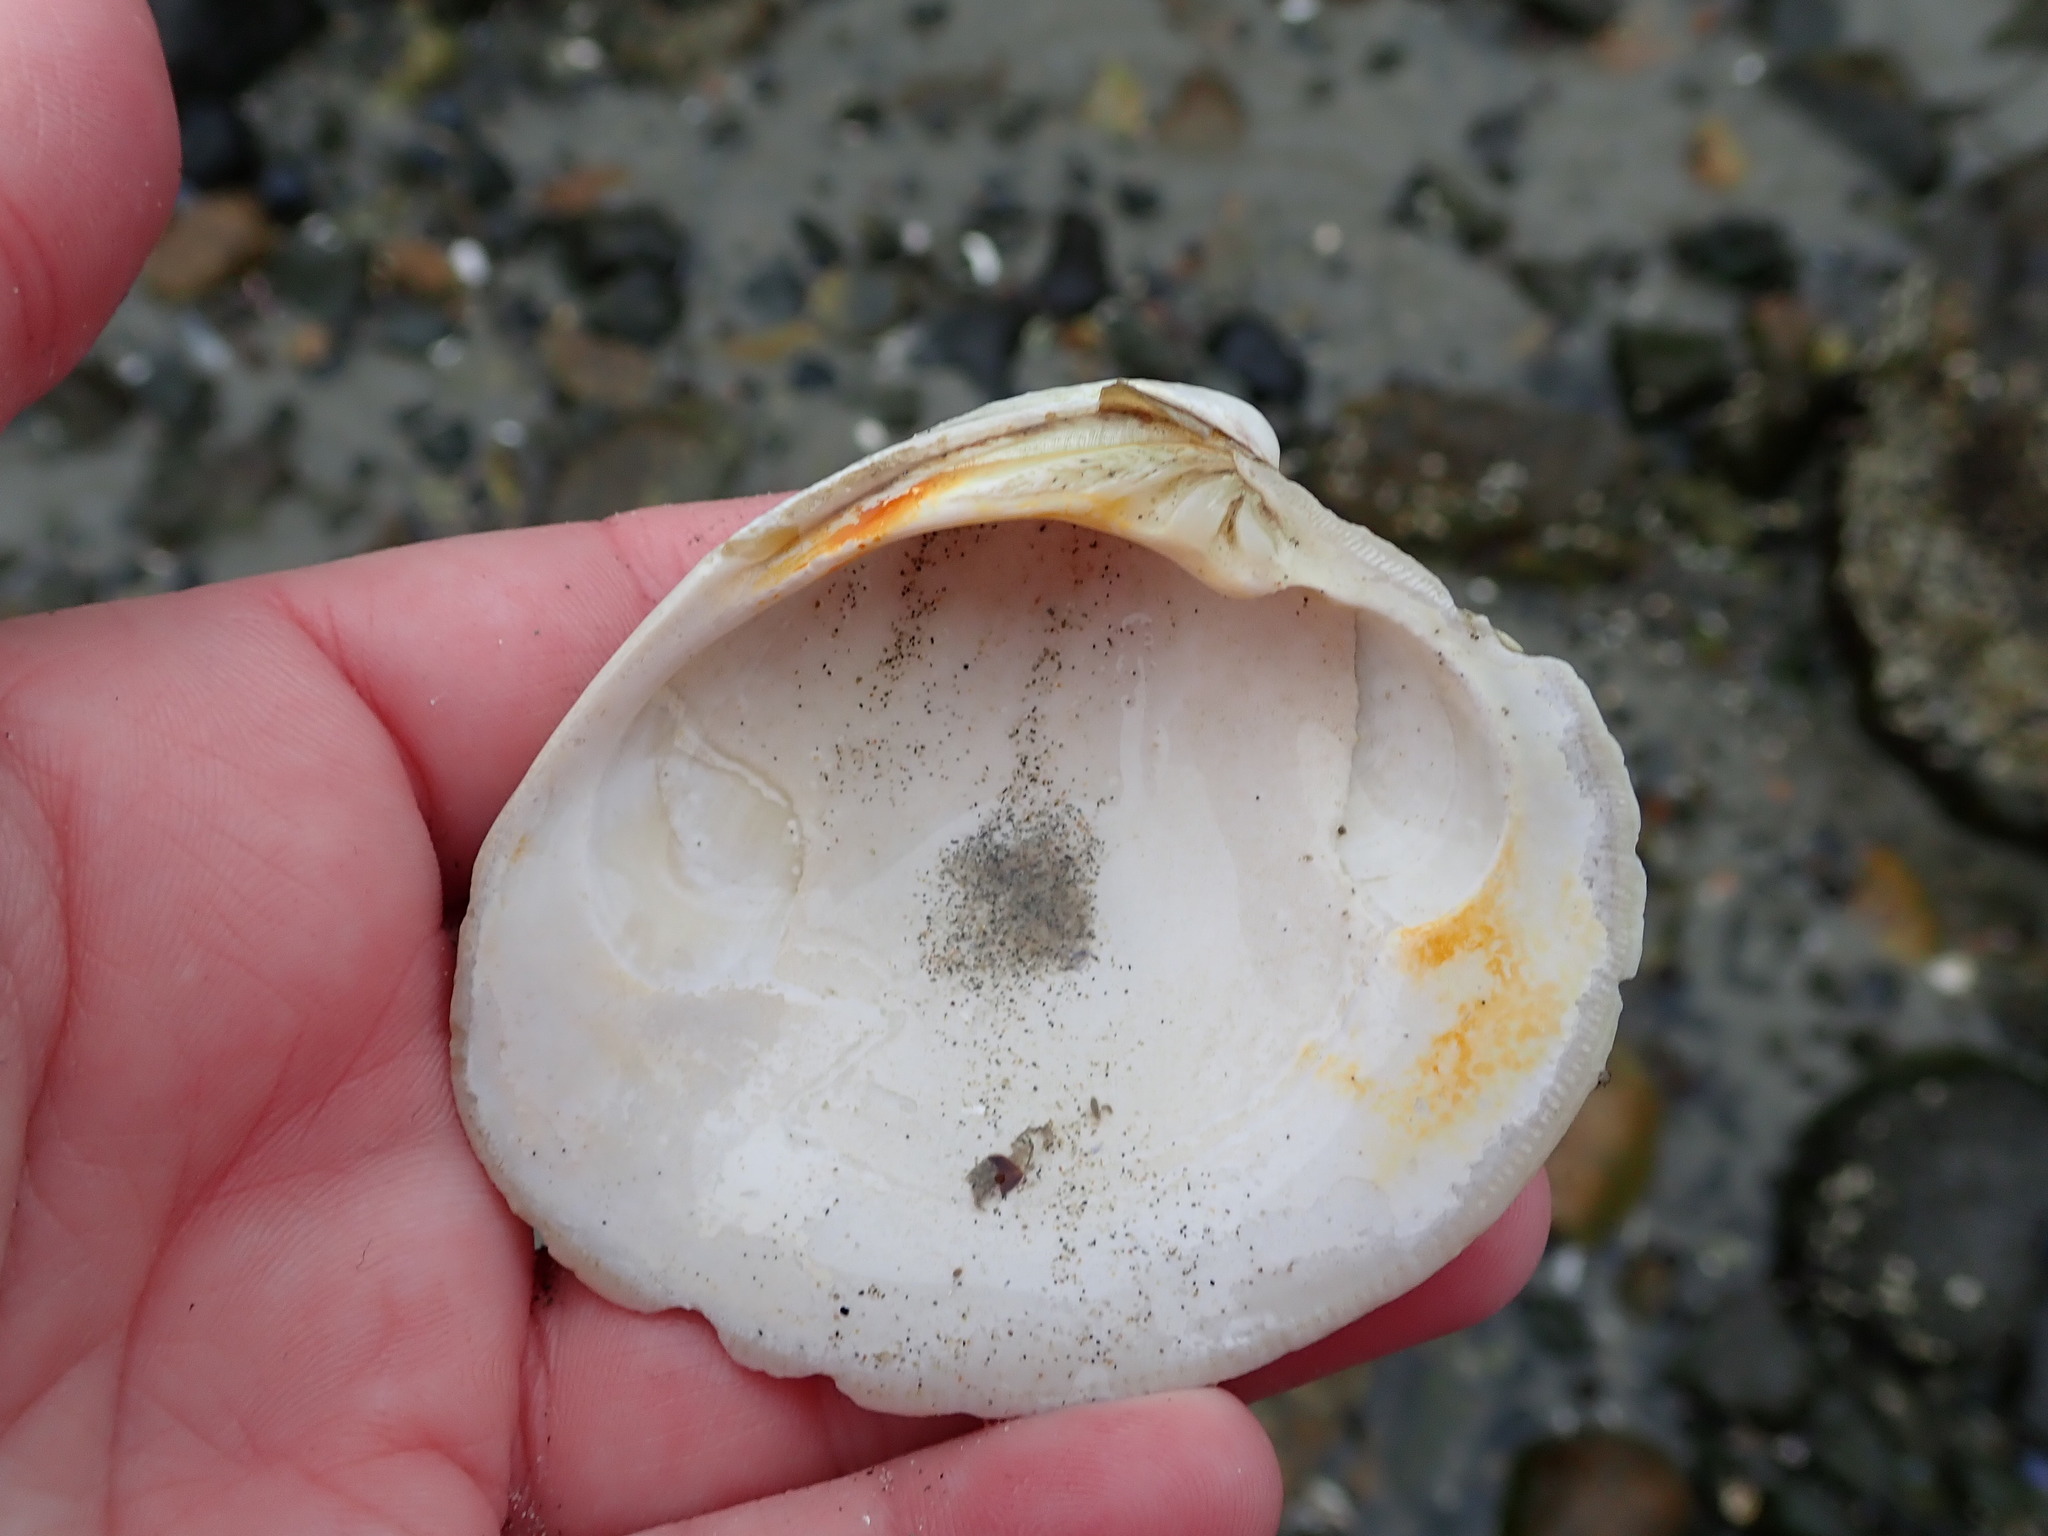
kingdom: Animalia
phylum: Mollusca
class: Bivalvia
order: Venerida
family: Veneridae
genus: Mercenaria
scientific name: Mercenaria mercenaria
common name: American hard-shelled clam
